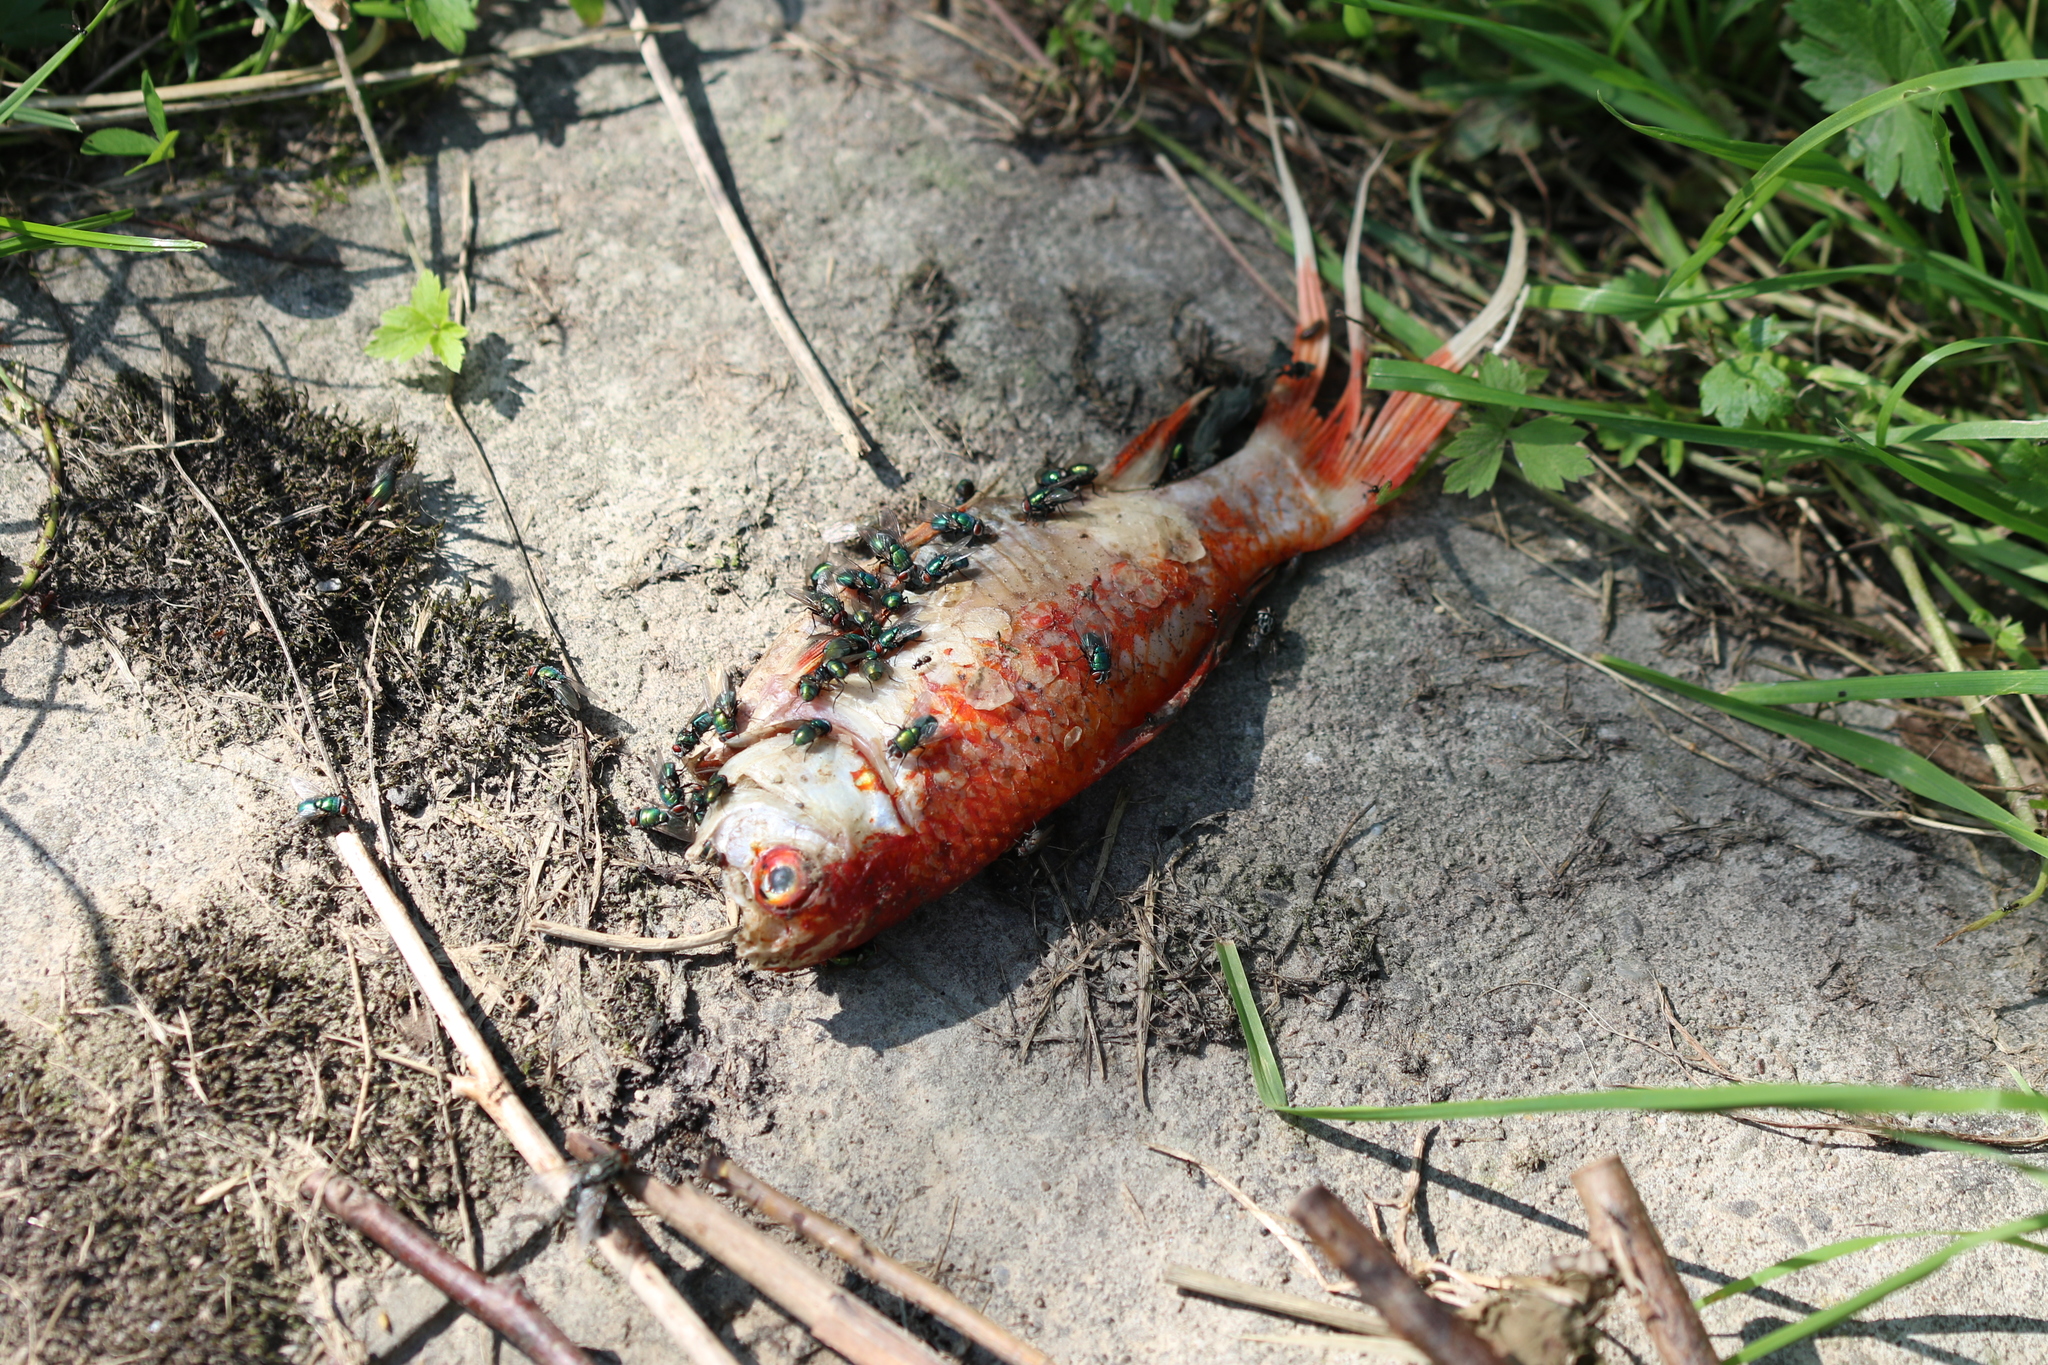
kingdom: Animalia
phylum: Chordata
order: Cypriniformes
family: Cyprinidae
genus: Carassius
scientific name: Carassius auratus
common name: Goldfish
